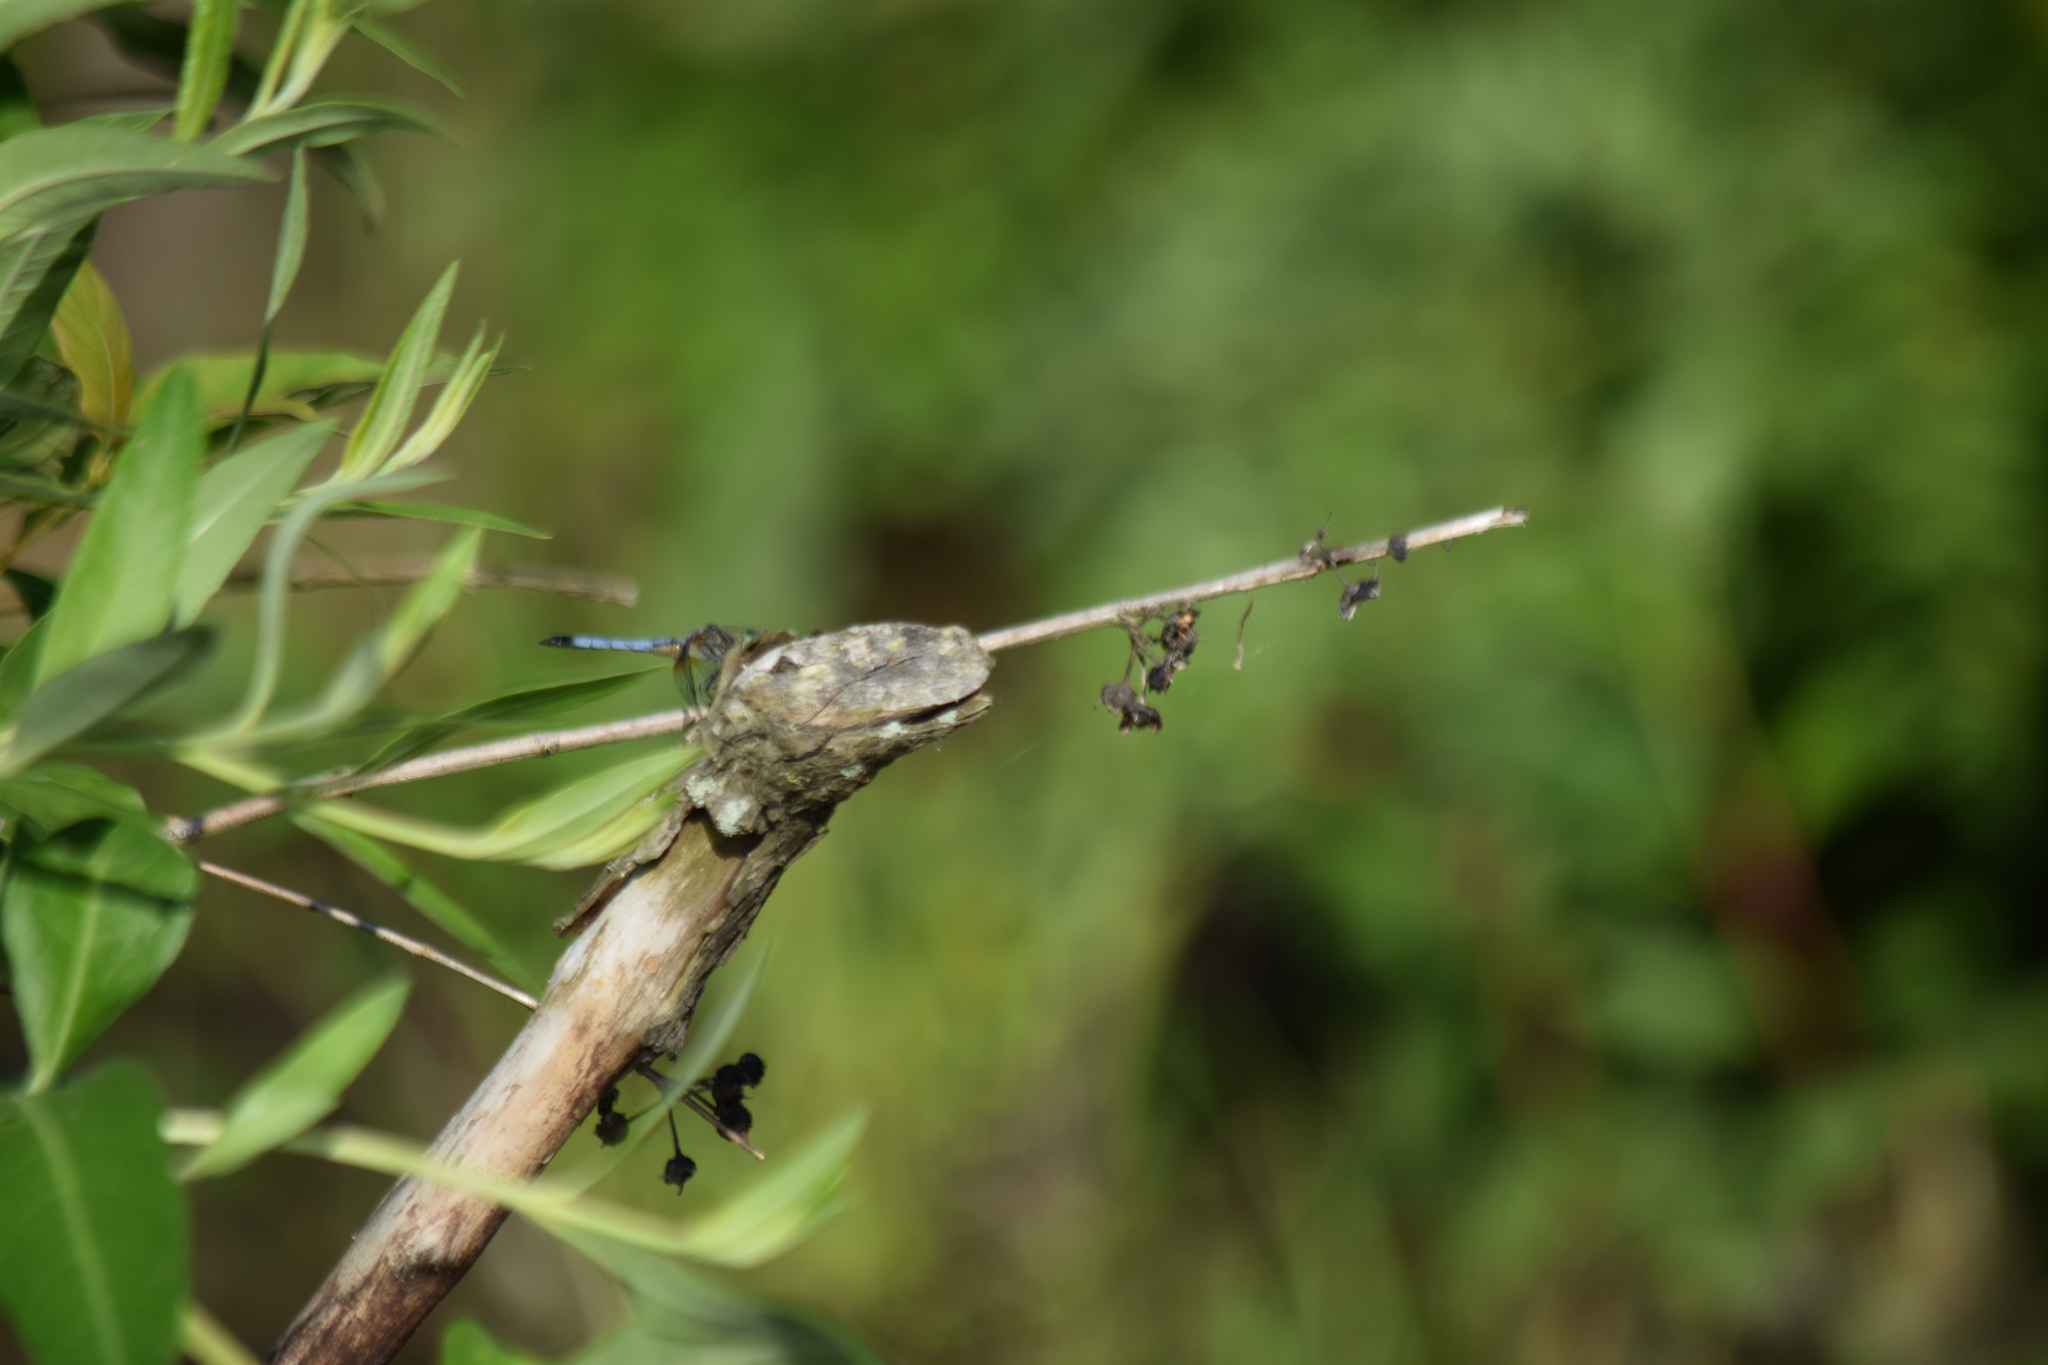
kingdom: Animalia
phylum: Arthropoda
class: Insecta
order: Odonata
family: Libellulidae
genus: Pachydiplax
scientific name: Pachydiplax longipennis
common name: Blue dasher
